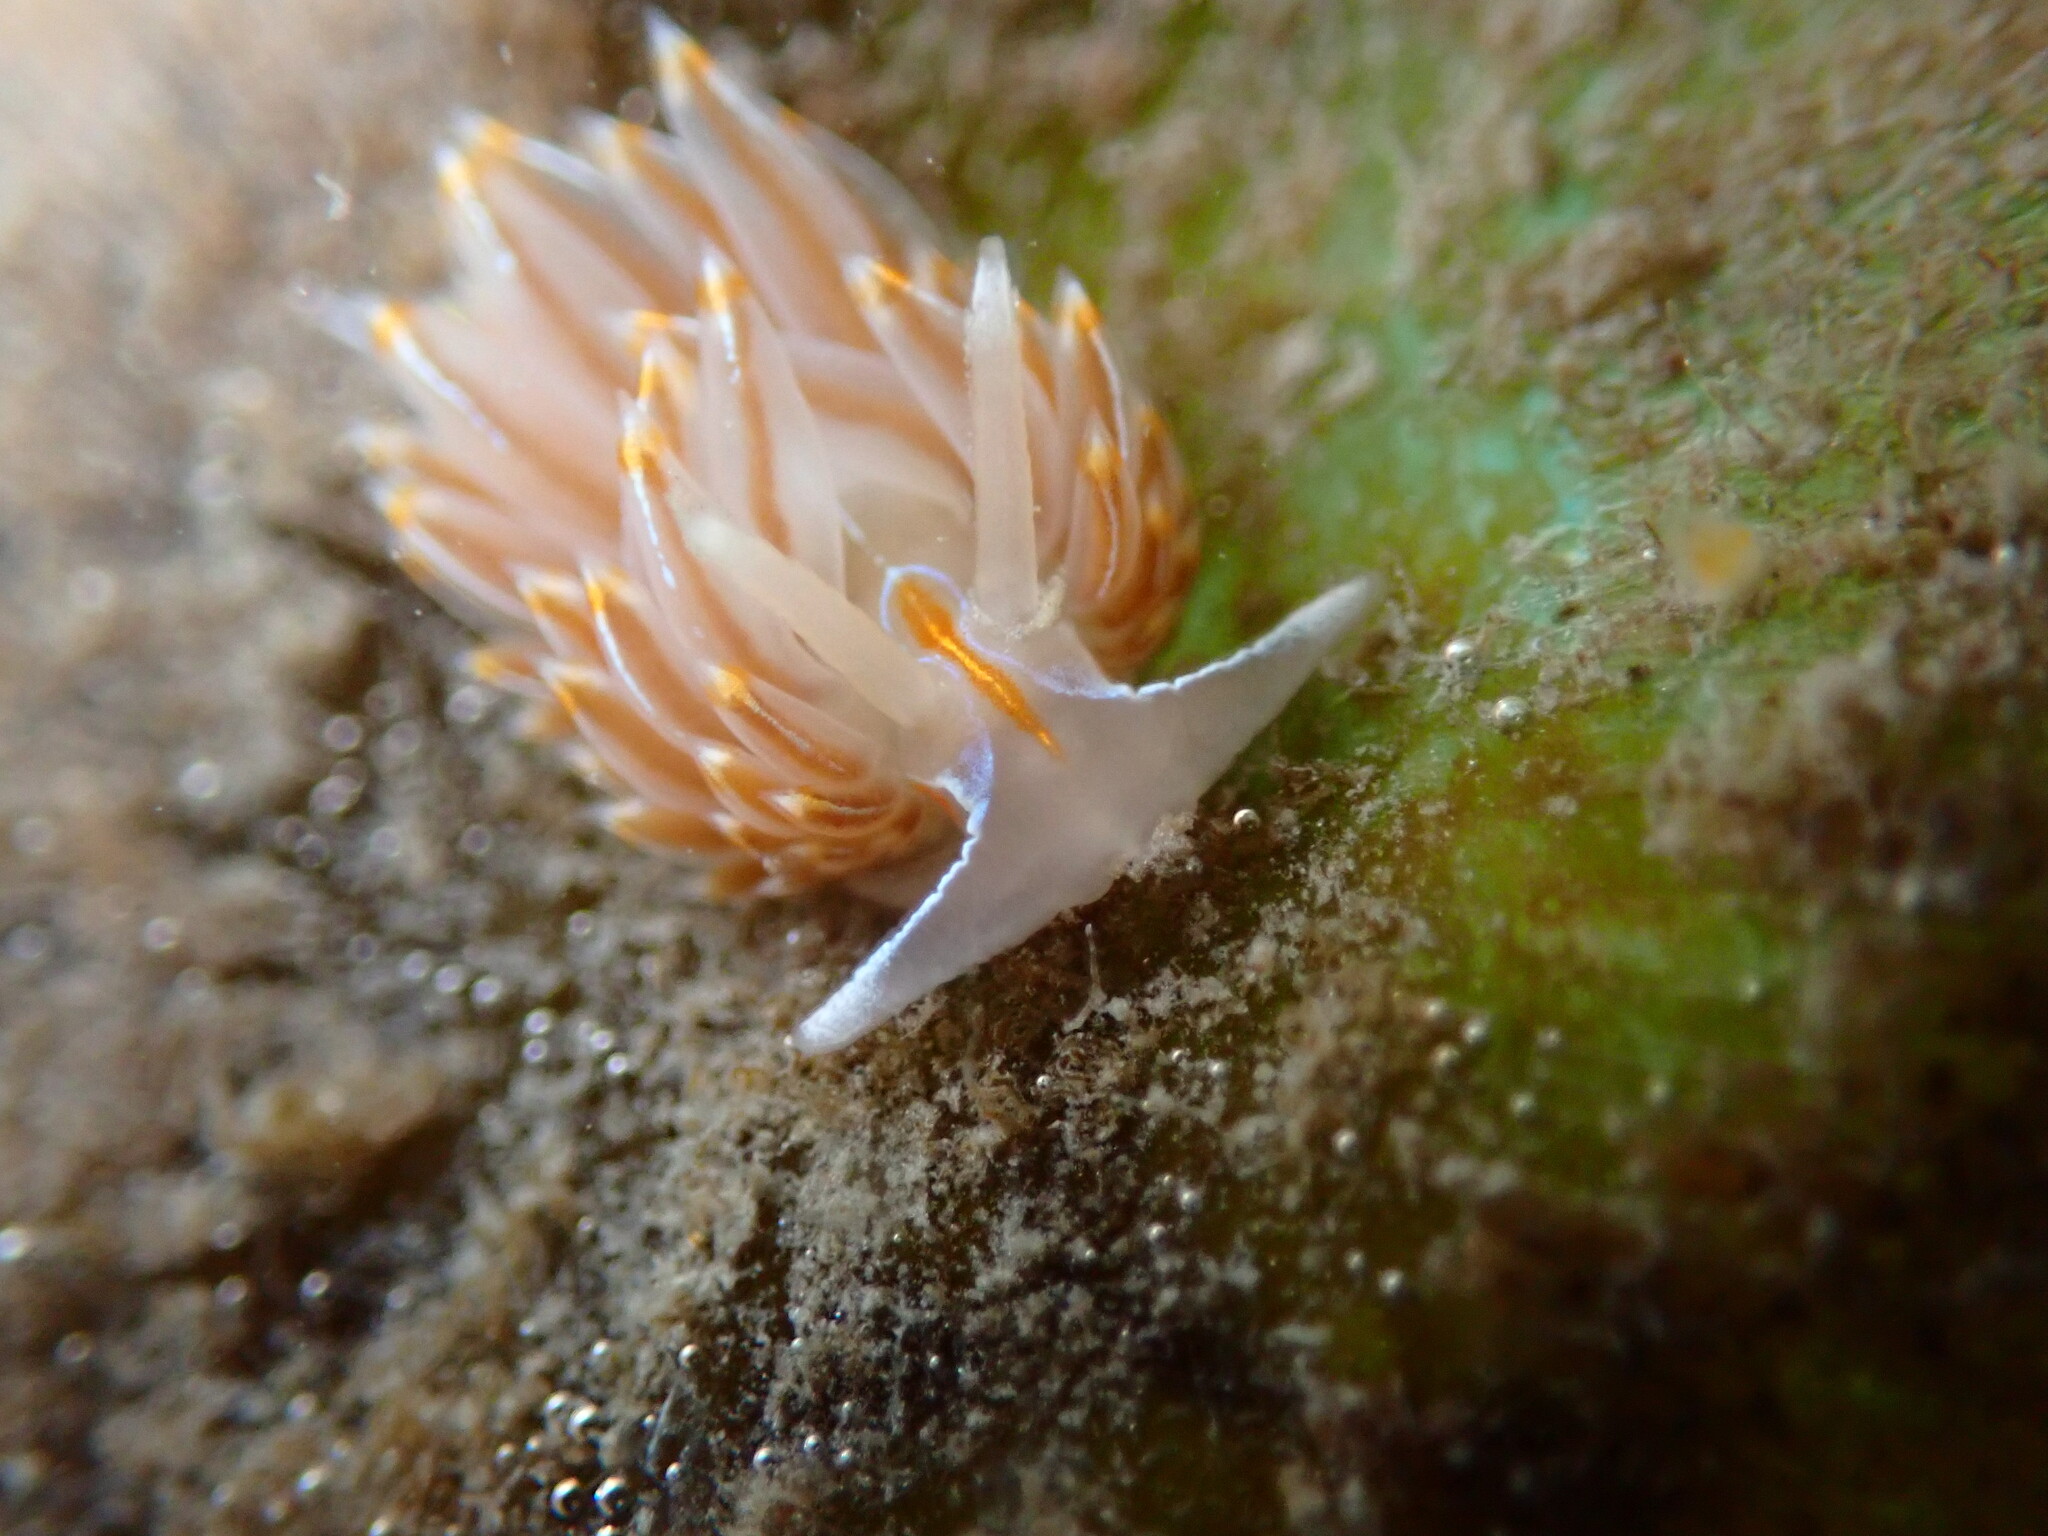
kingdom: Animalia
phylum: Mollusca
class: Gastropoda
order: Nudibranchia
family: Myrrhinidae
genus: Hermissenda
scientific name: Hermissenda crassicornis
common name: Hermissenda
